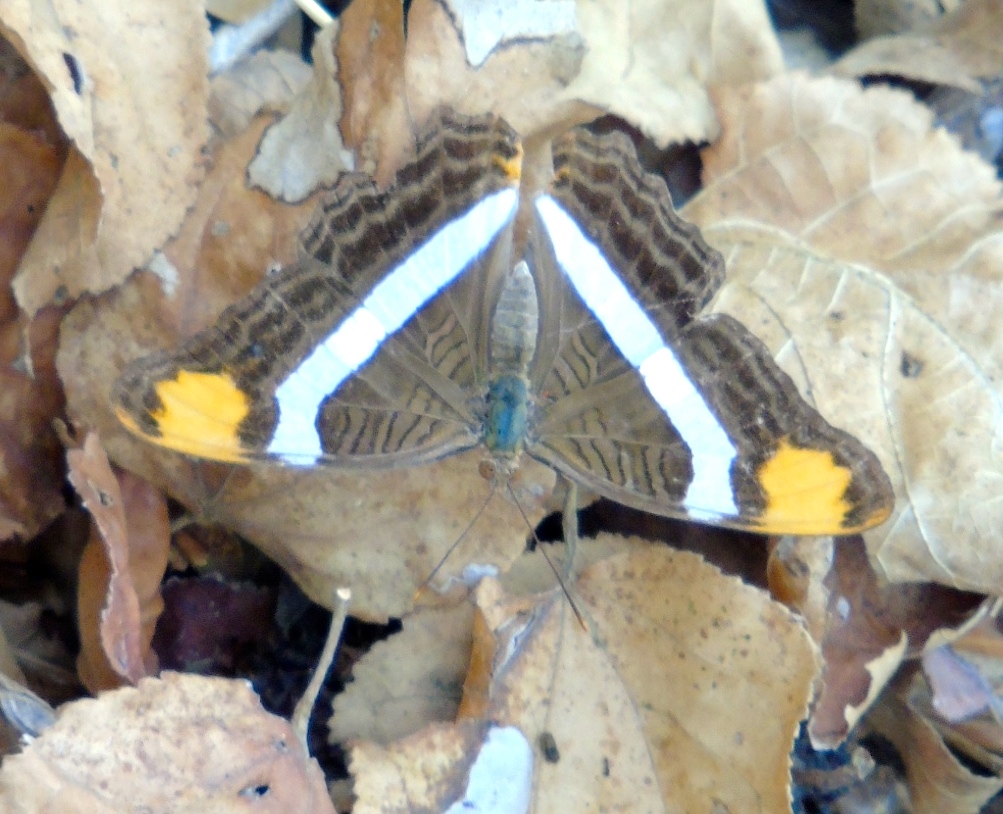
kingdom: Animalia
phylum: Arthropoda
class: Insecta
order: Lepidoptera
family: Nymphalidae
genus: Limenitis
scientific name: Limenitis fessonia
